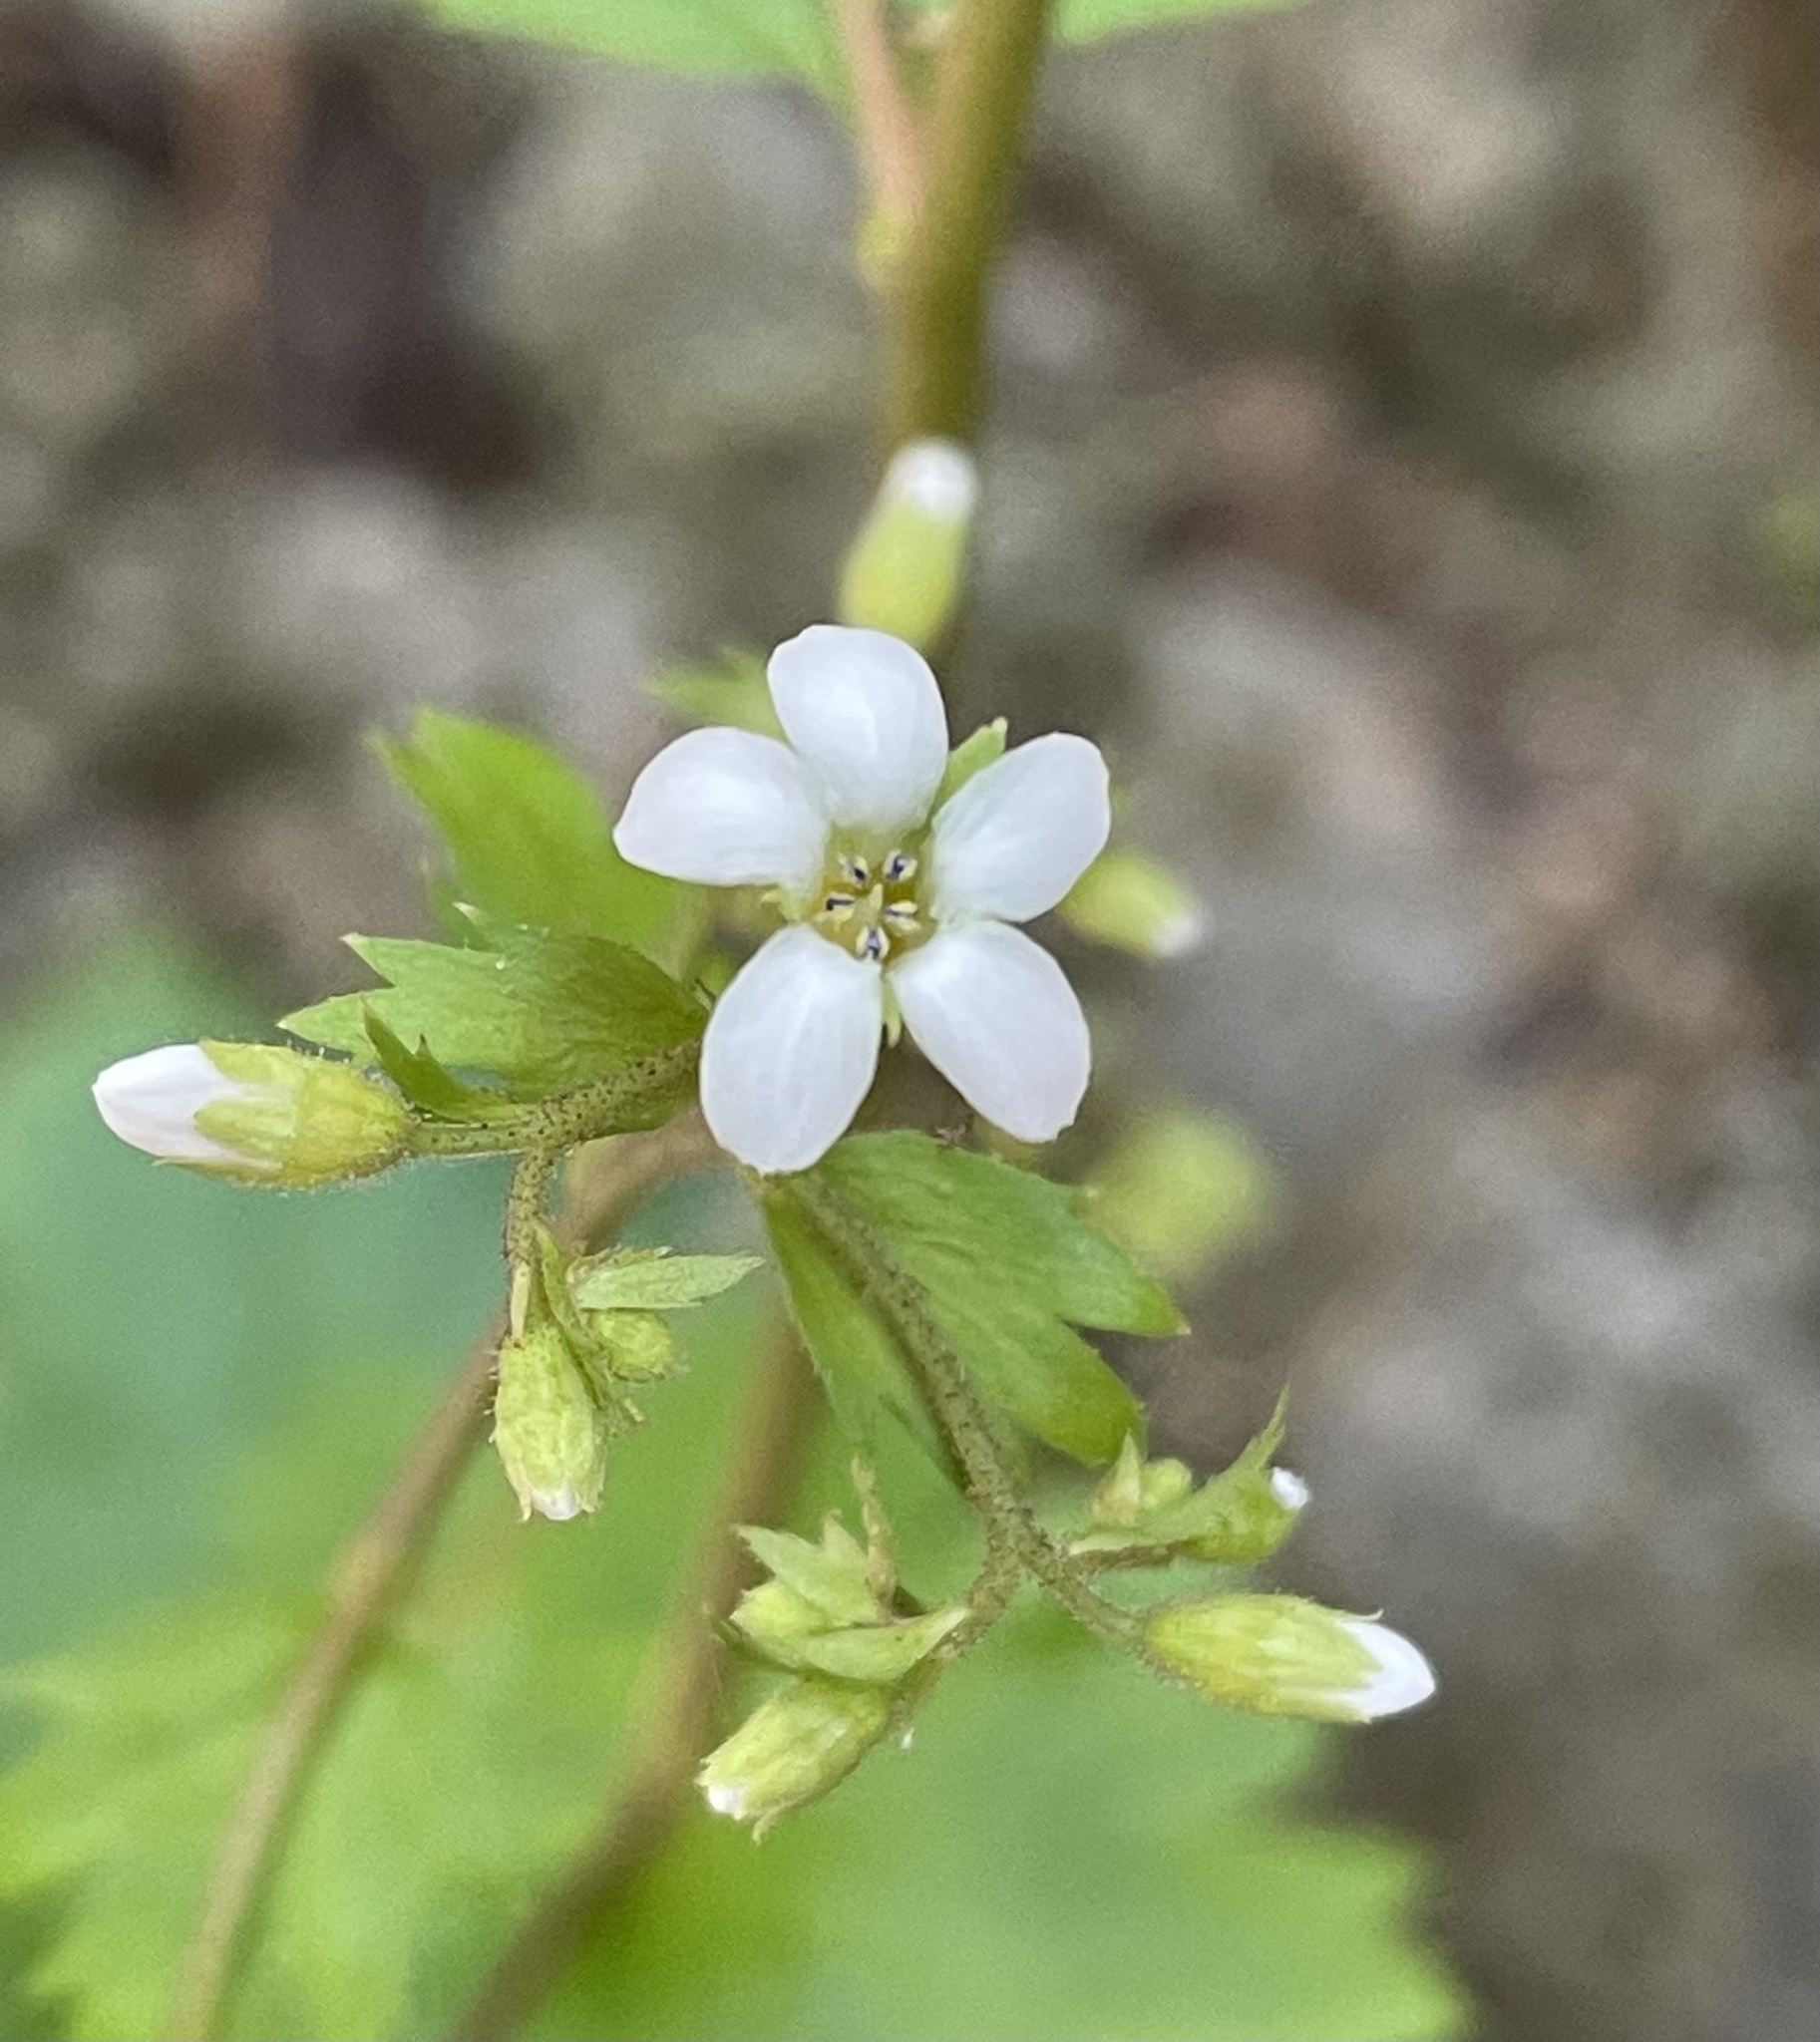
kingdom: Plantae
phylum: Tracheophyta
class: Magnoliopsida
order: Saxifragales
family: Saxifragaceae
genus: Boykinia
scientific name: Boykinia occidentalis
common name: Coast boykinia
